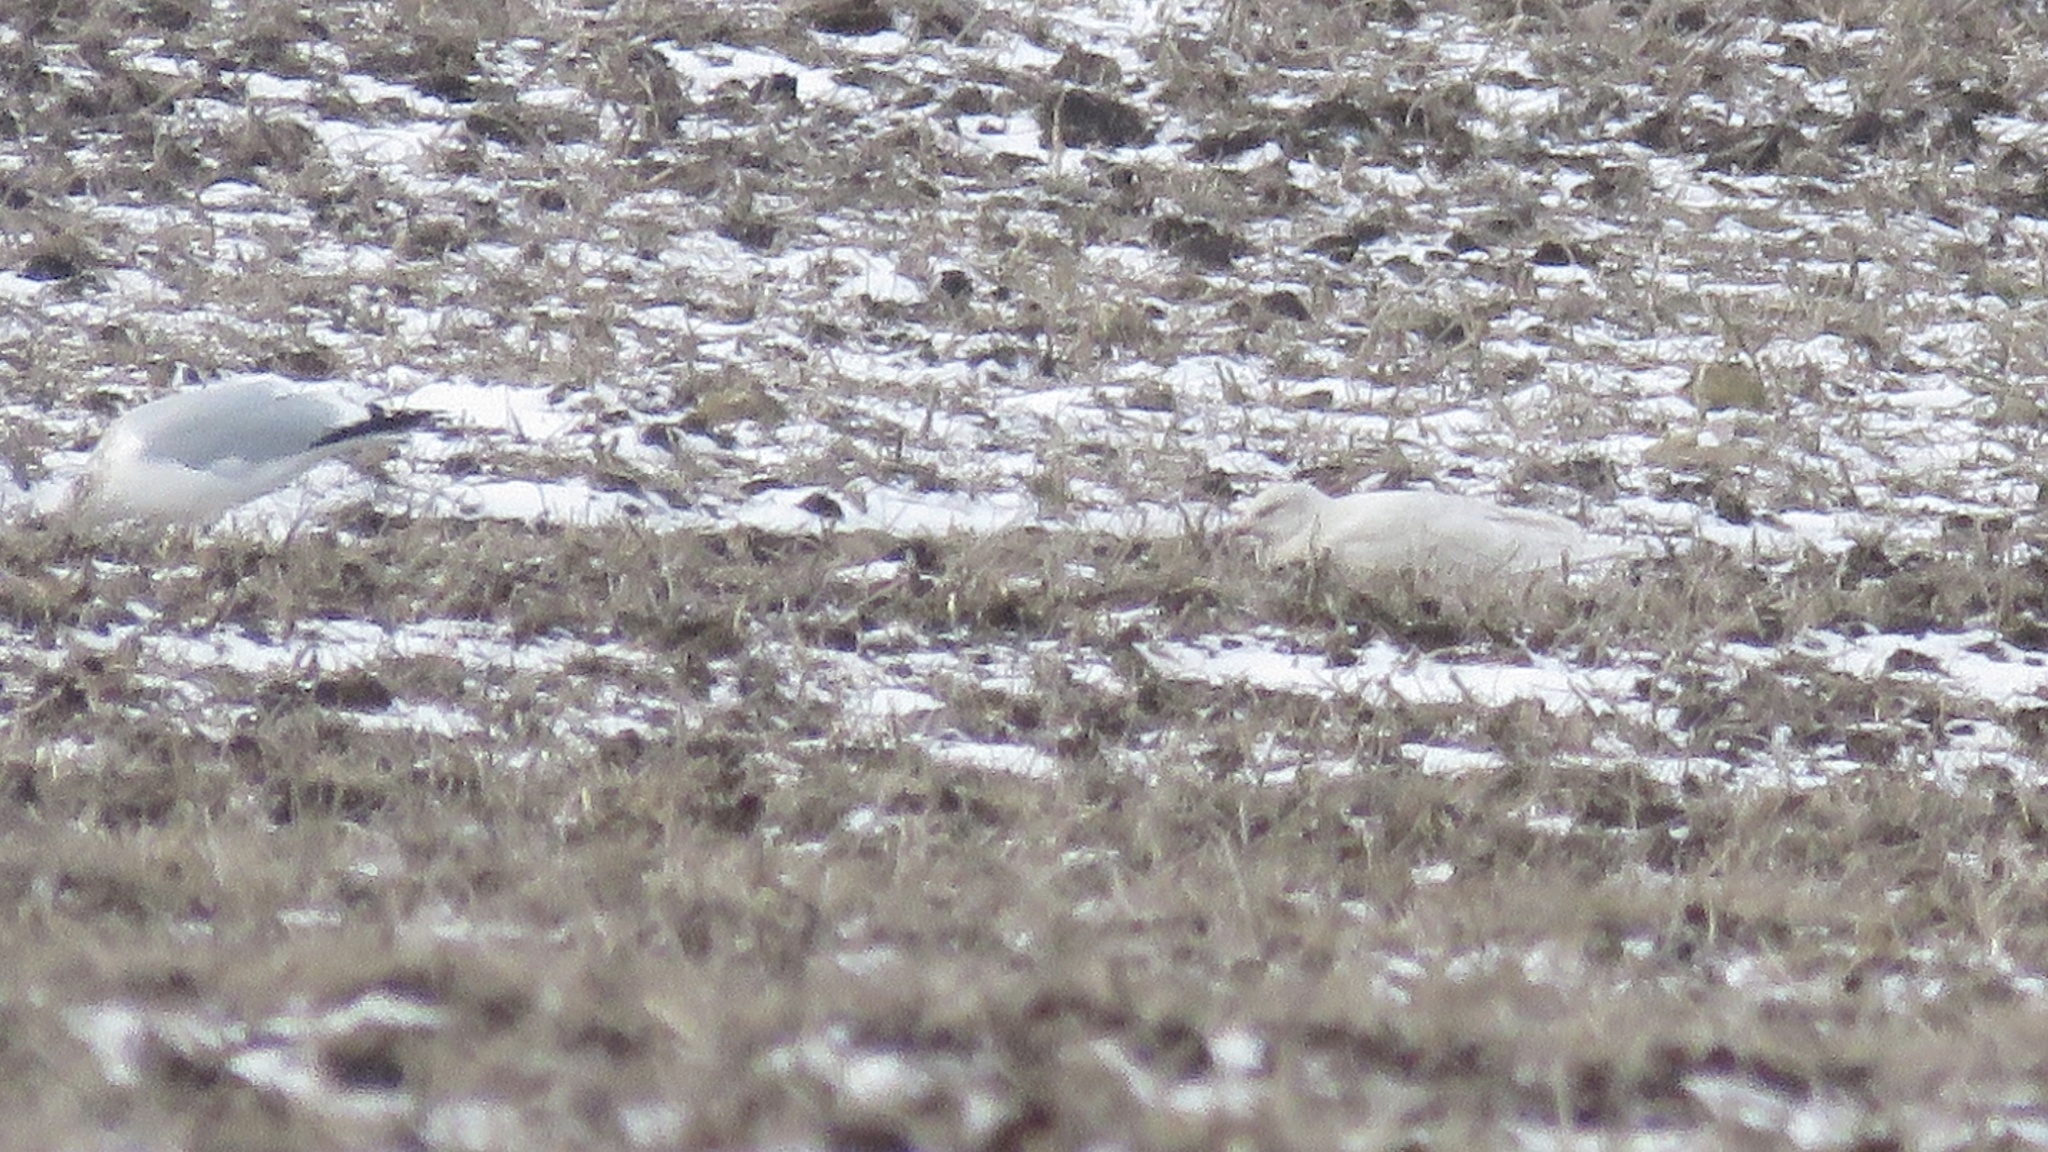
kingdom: Animalia
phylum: Chordata
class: Aves
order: Charadriiformes
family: Laridae
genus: Larus
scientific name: Larus hyperboreus
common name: Glaucous gull
